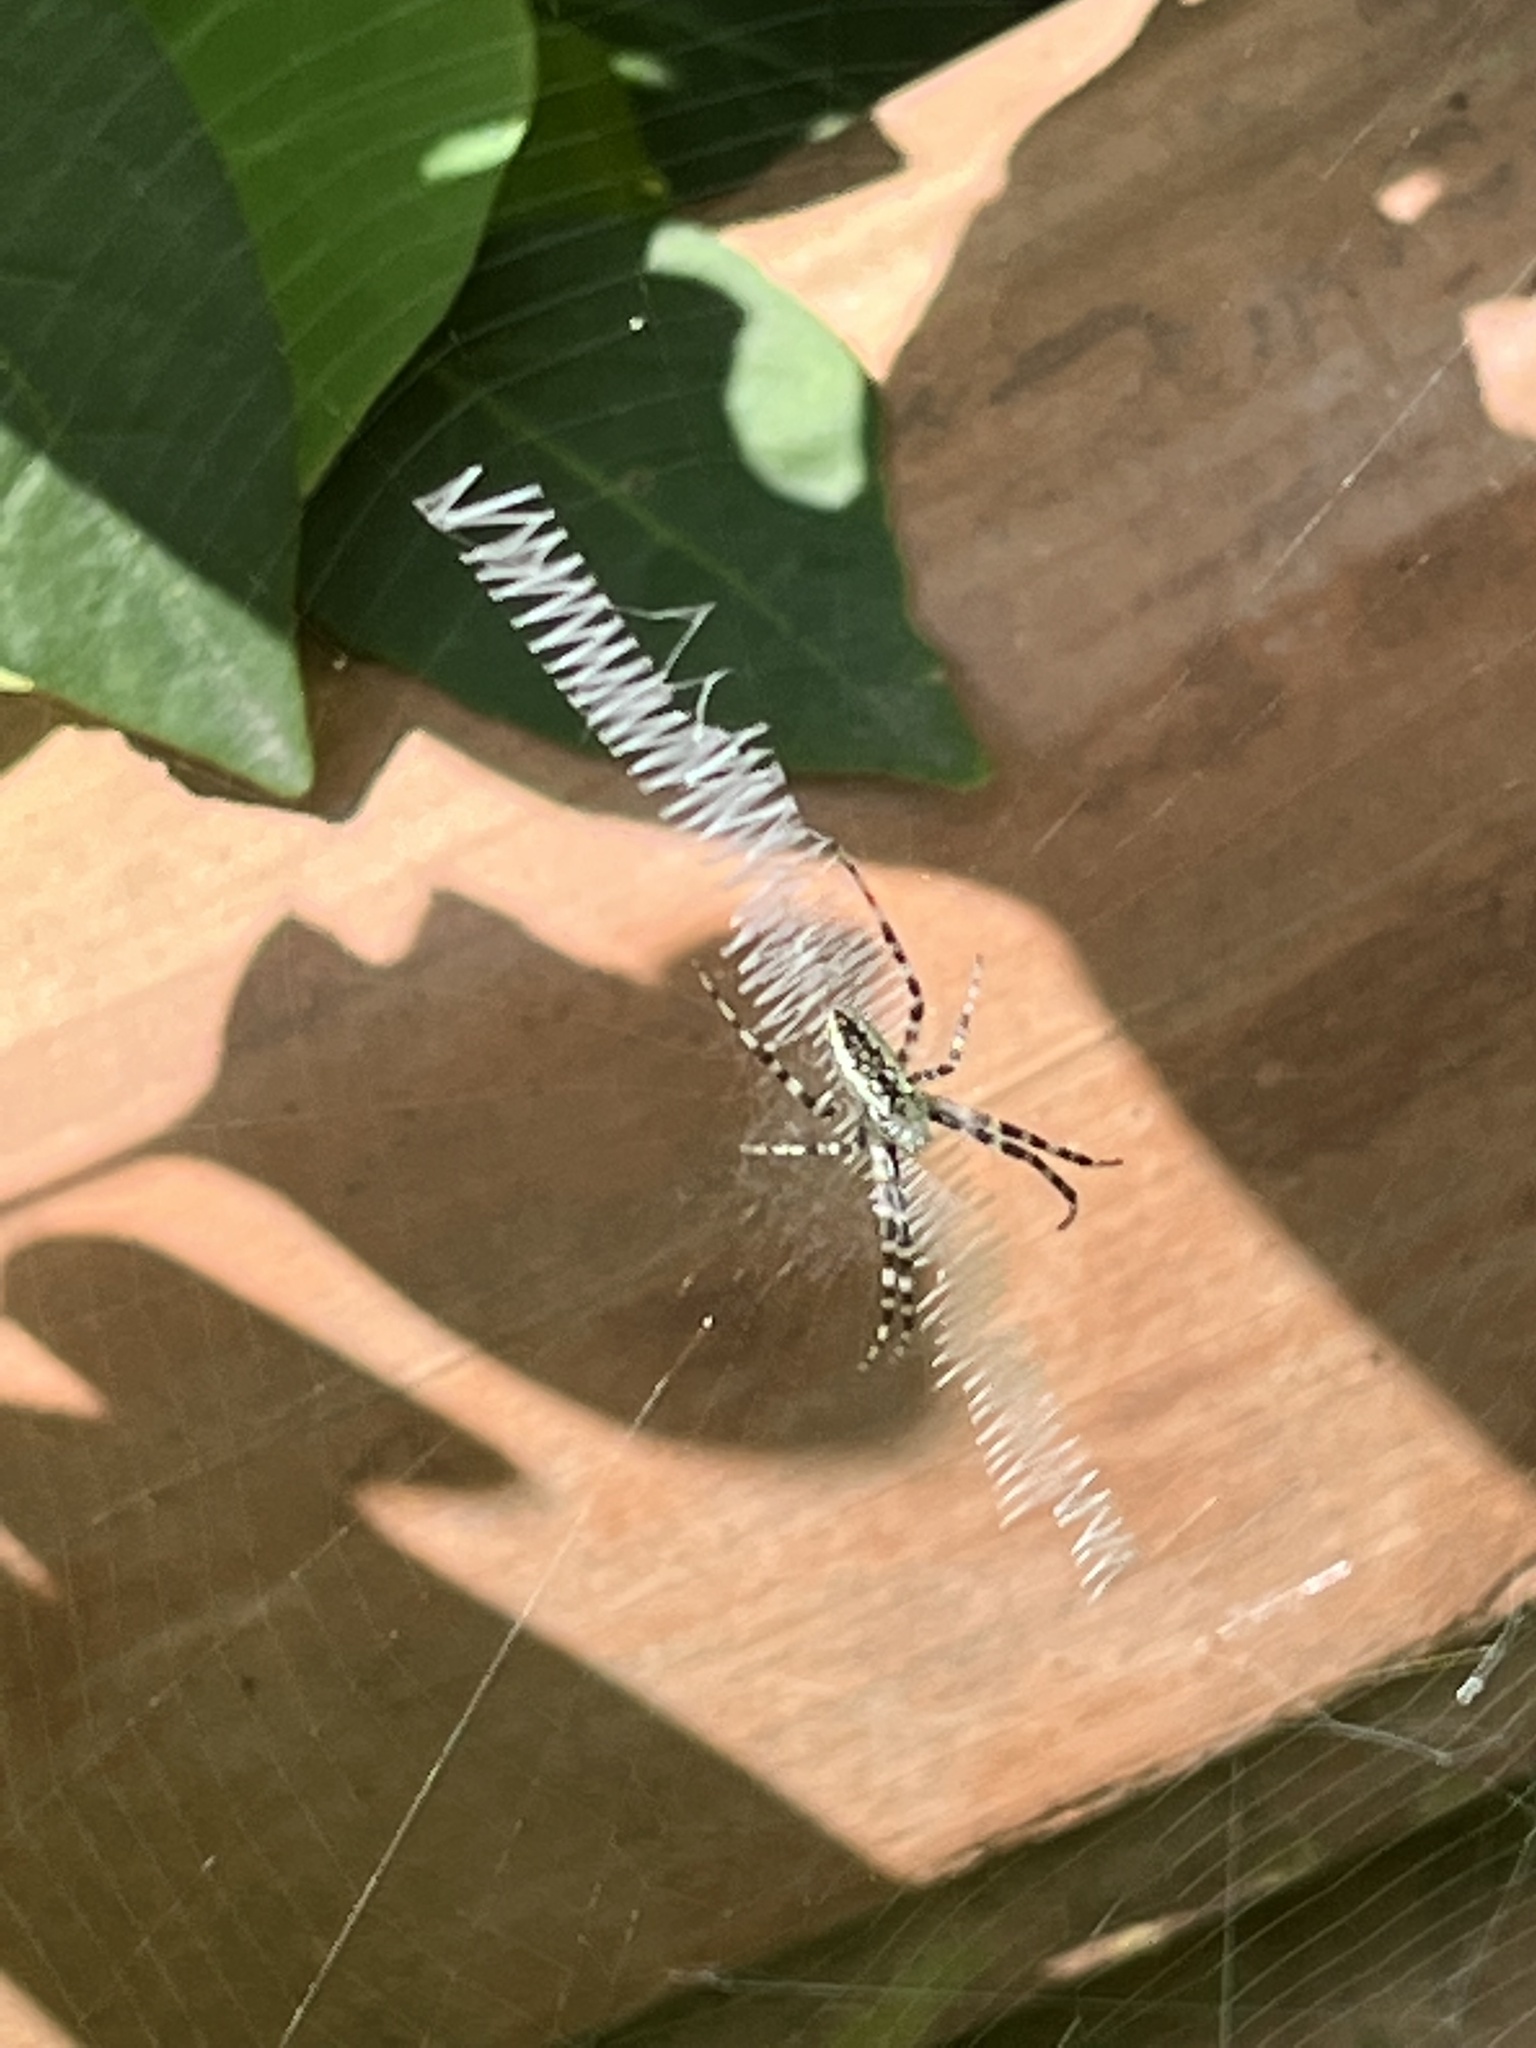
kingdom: Animalia
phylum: Arthropoda
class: Arachnida
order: Araneae
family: Araneidae
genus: Argiope
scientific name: Argiope aurantia
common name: Orb weavers
